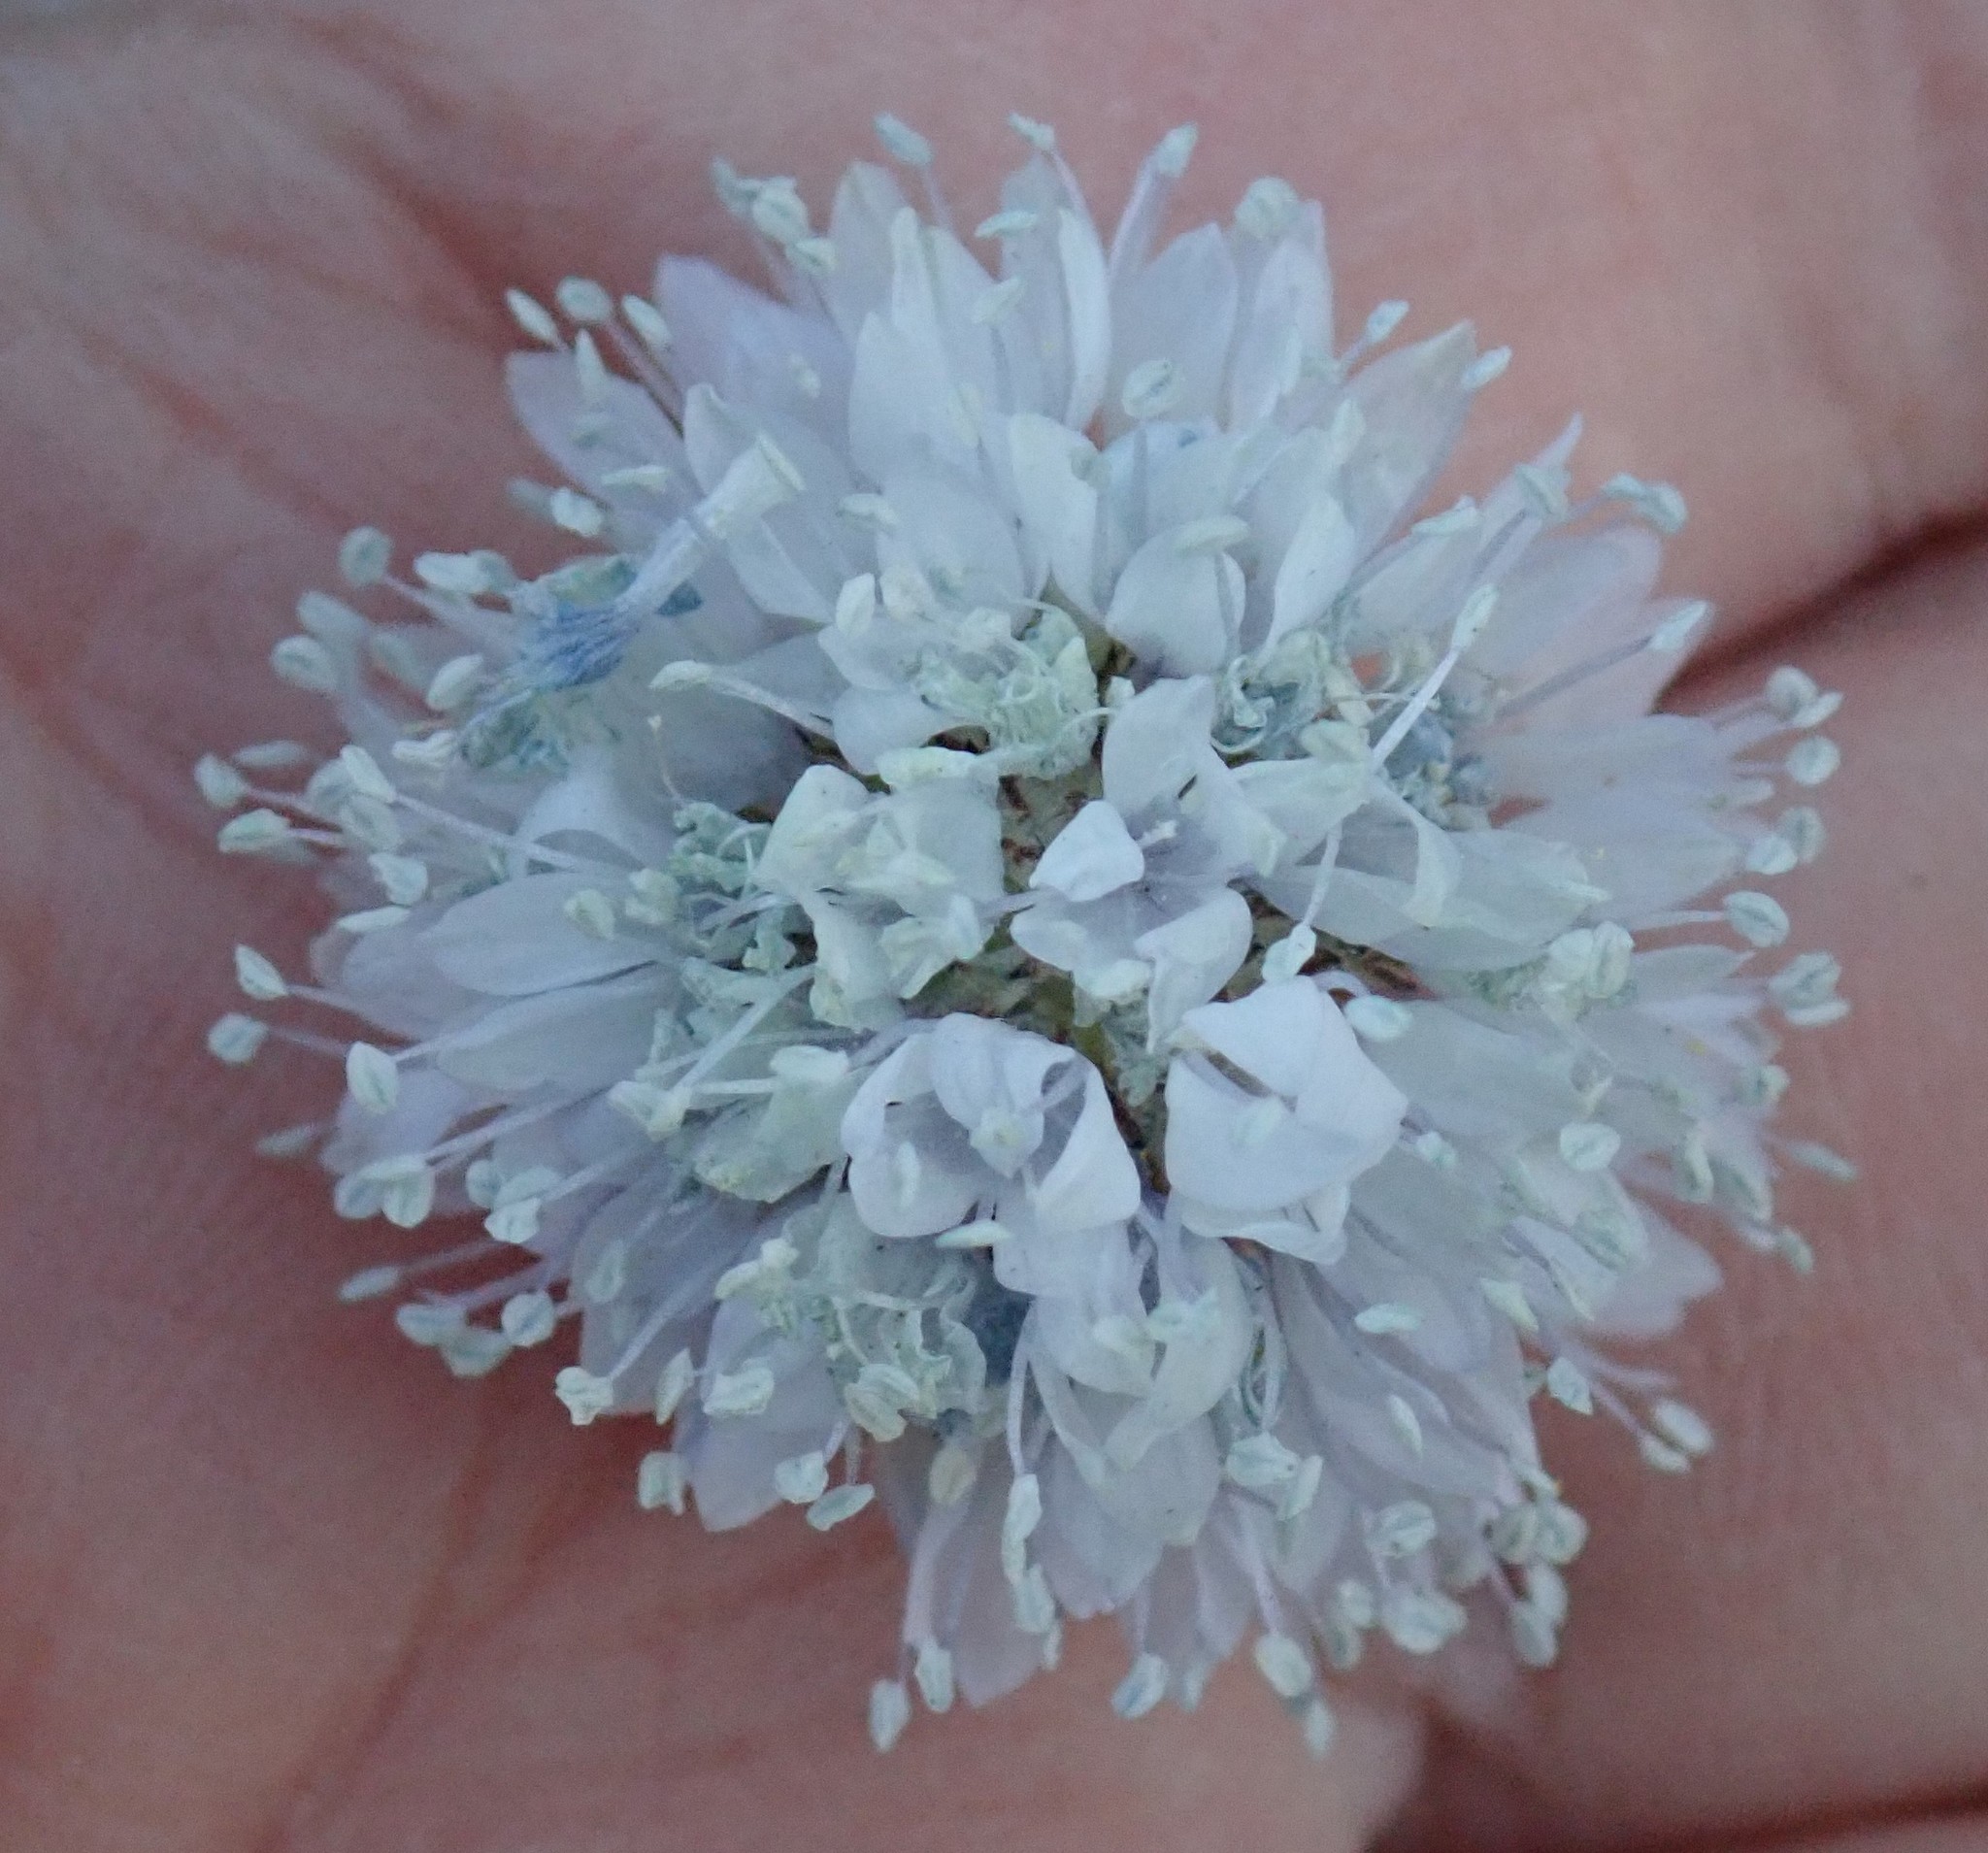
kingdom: Plantae
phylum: Tracheophyta
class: Magnoliopsida
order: Ericales
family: Polemoniaceae
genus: Gilia
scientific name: Gilia capitata
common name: Bluehead gilia
